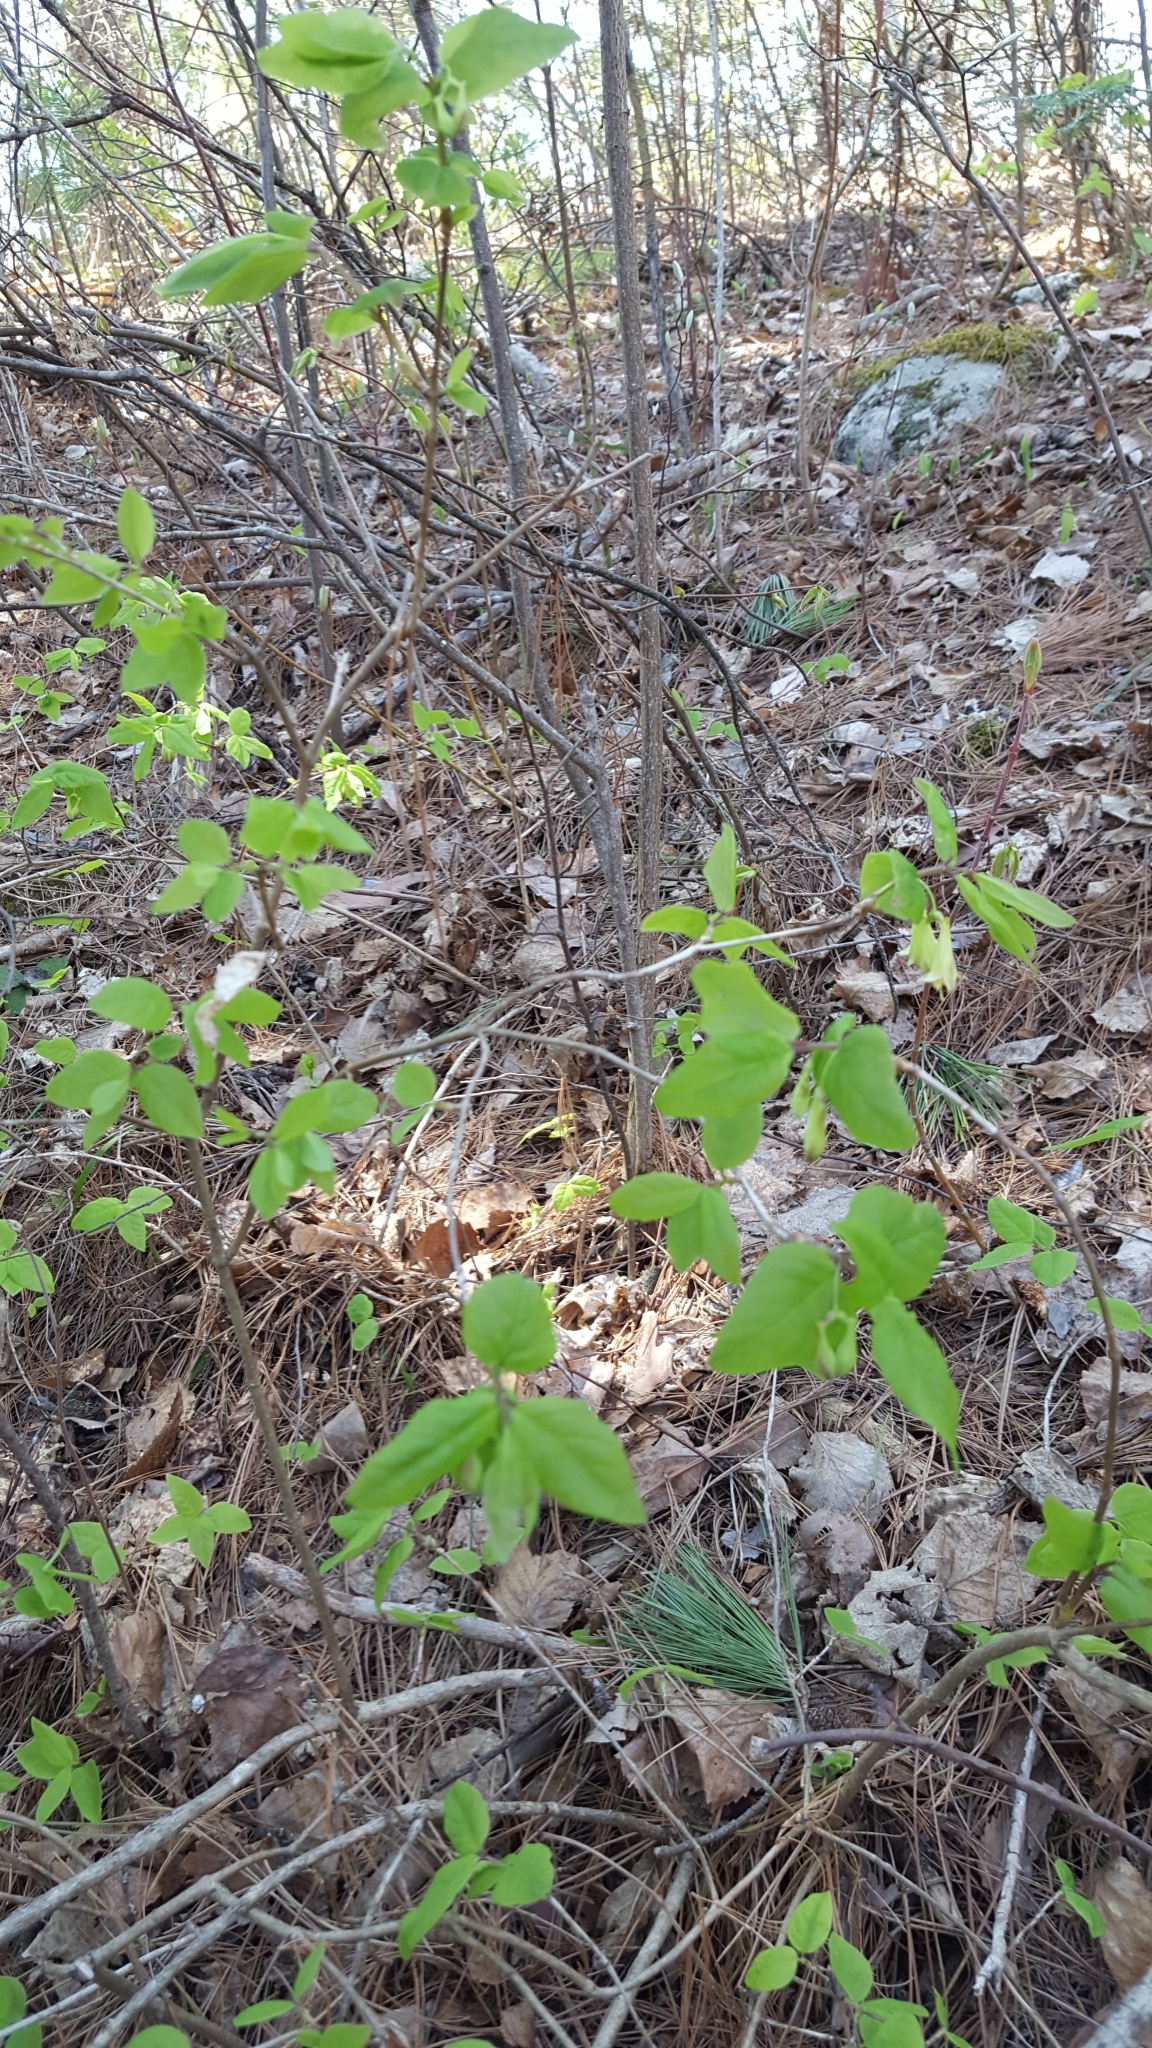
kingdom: Plantae
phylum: Tracheophyta
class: Magnoliopsida
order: Dipsacales
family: Caprifoliaceae
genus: Lonicera
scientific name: Lonicera canadensis
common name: American fly-honeysuckle
